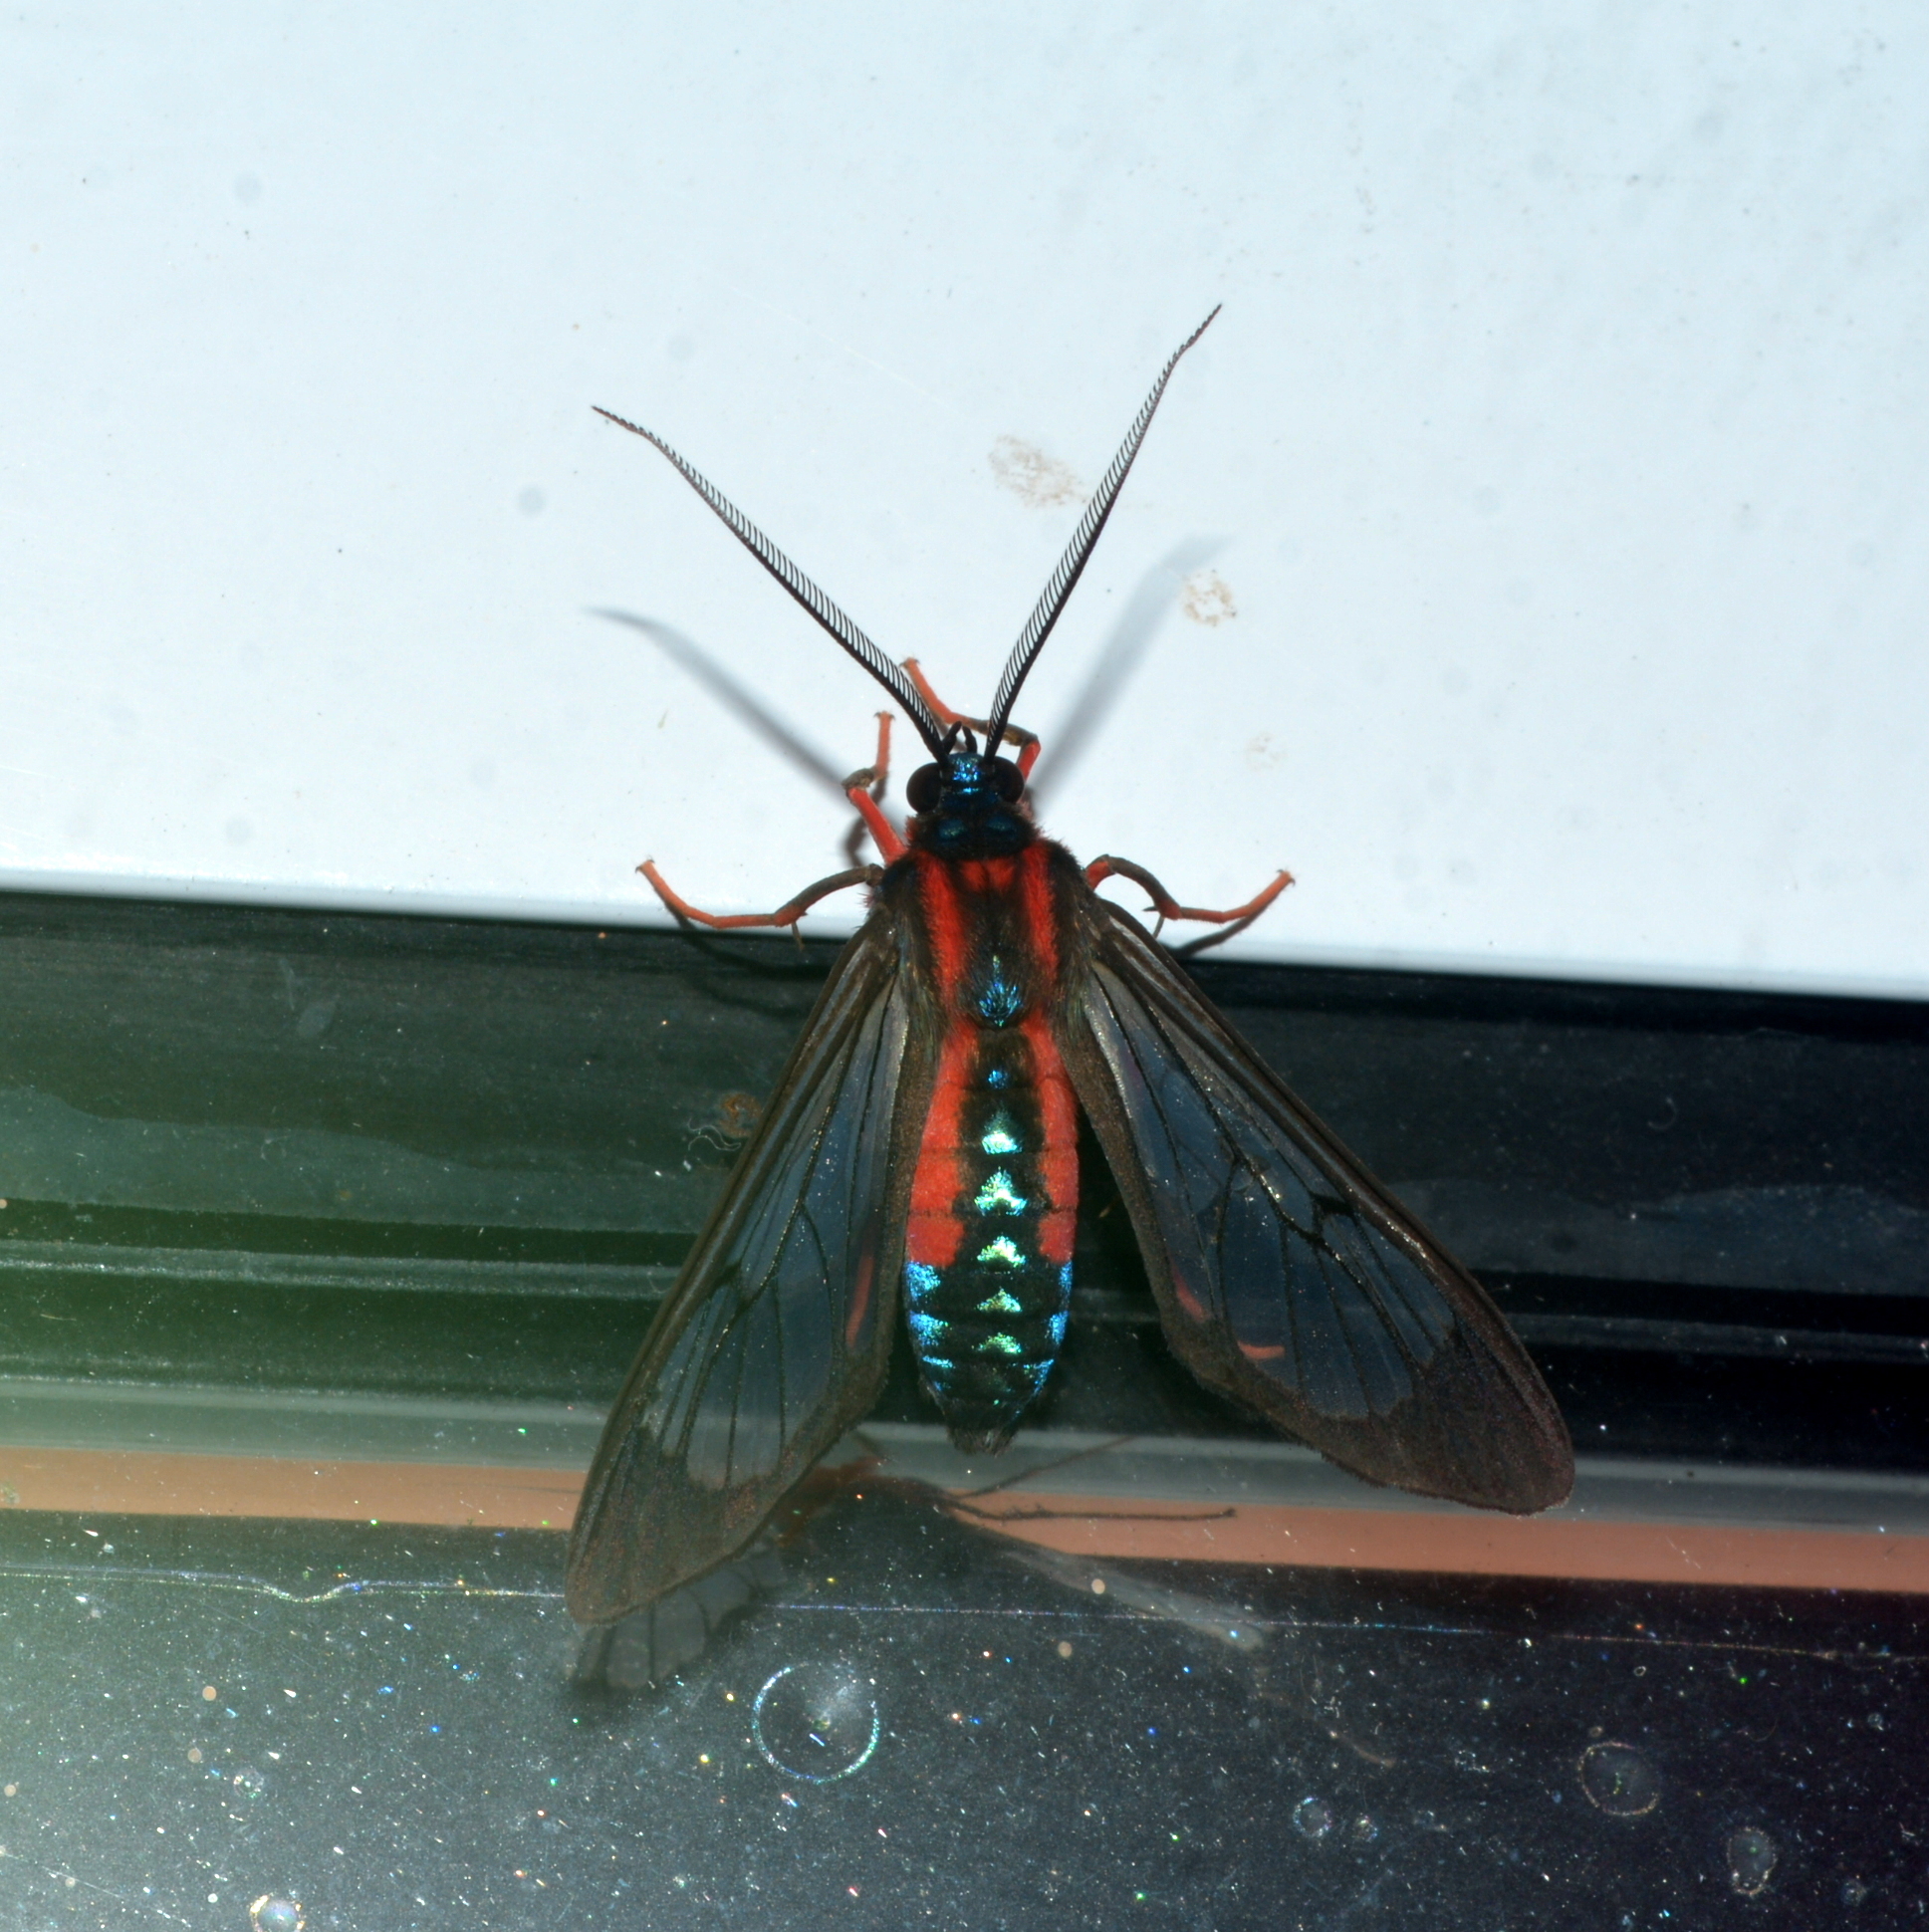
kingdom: Animalia
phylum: Arthropoda
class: Insecta
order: Lepidoptera
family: Erebidae
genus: Cosmosoma
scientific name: Cosmosoma auge
